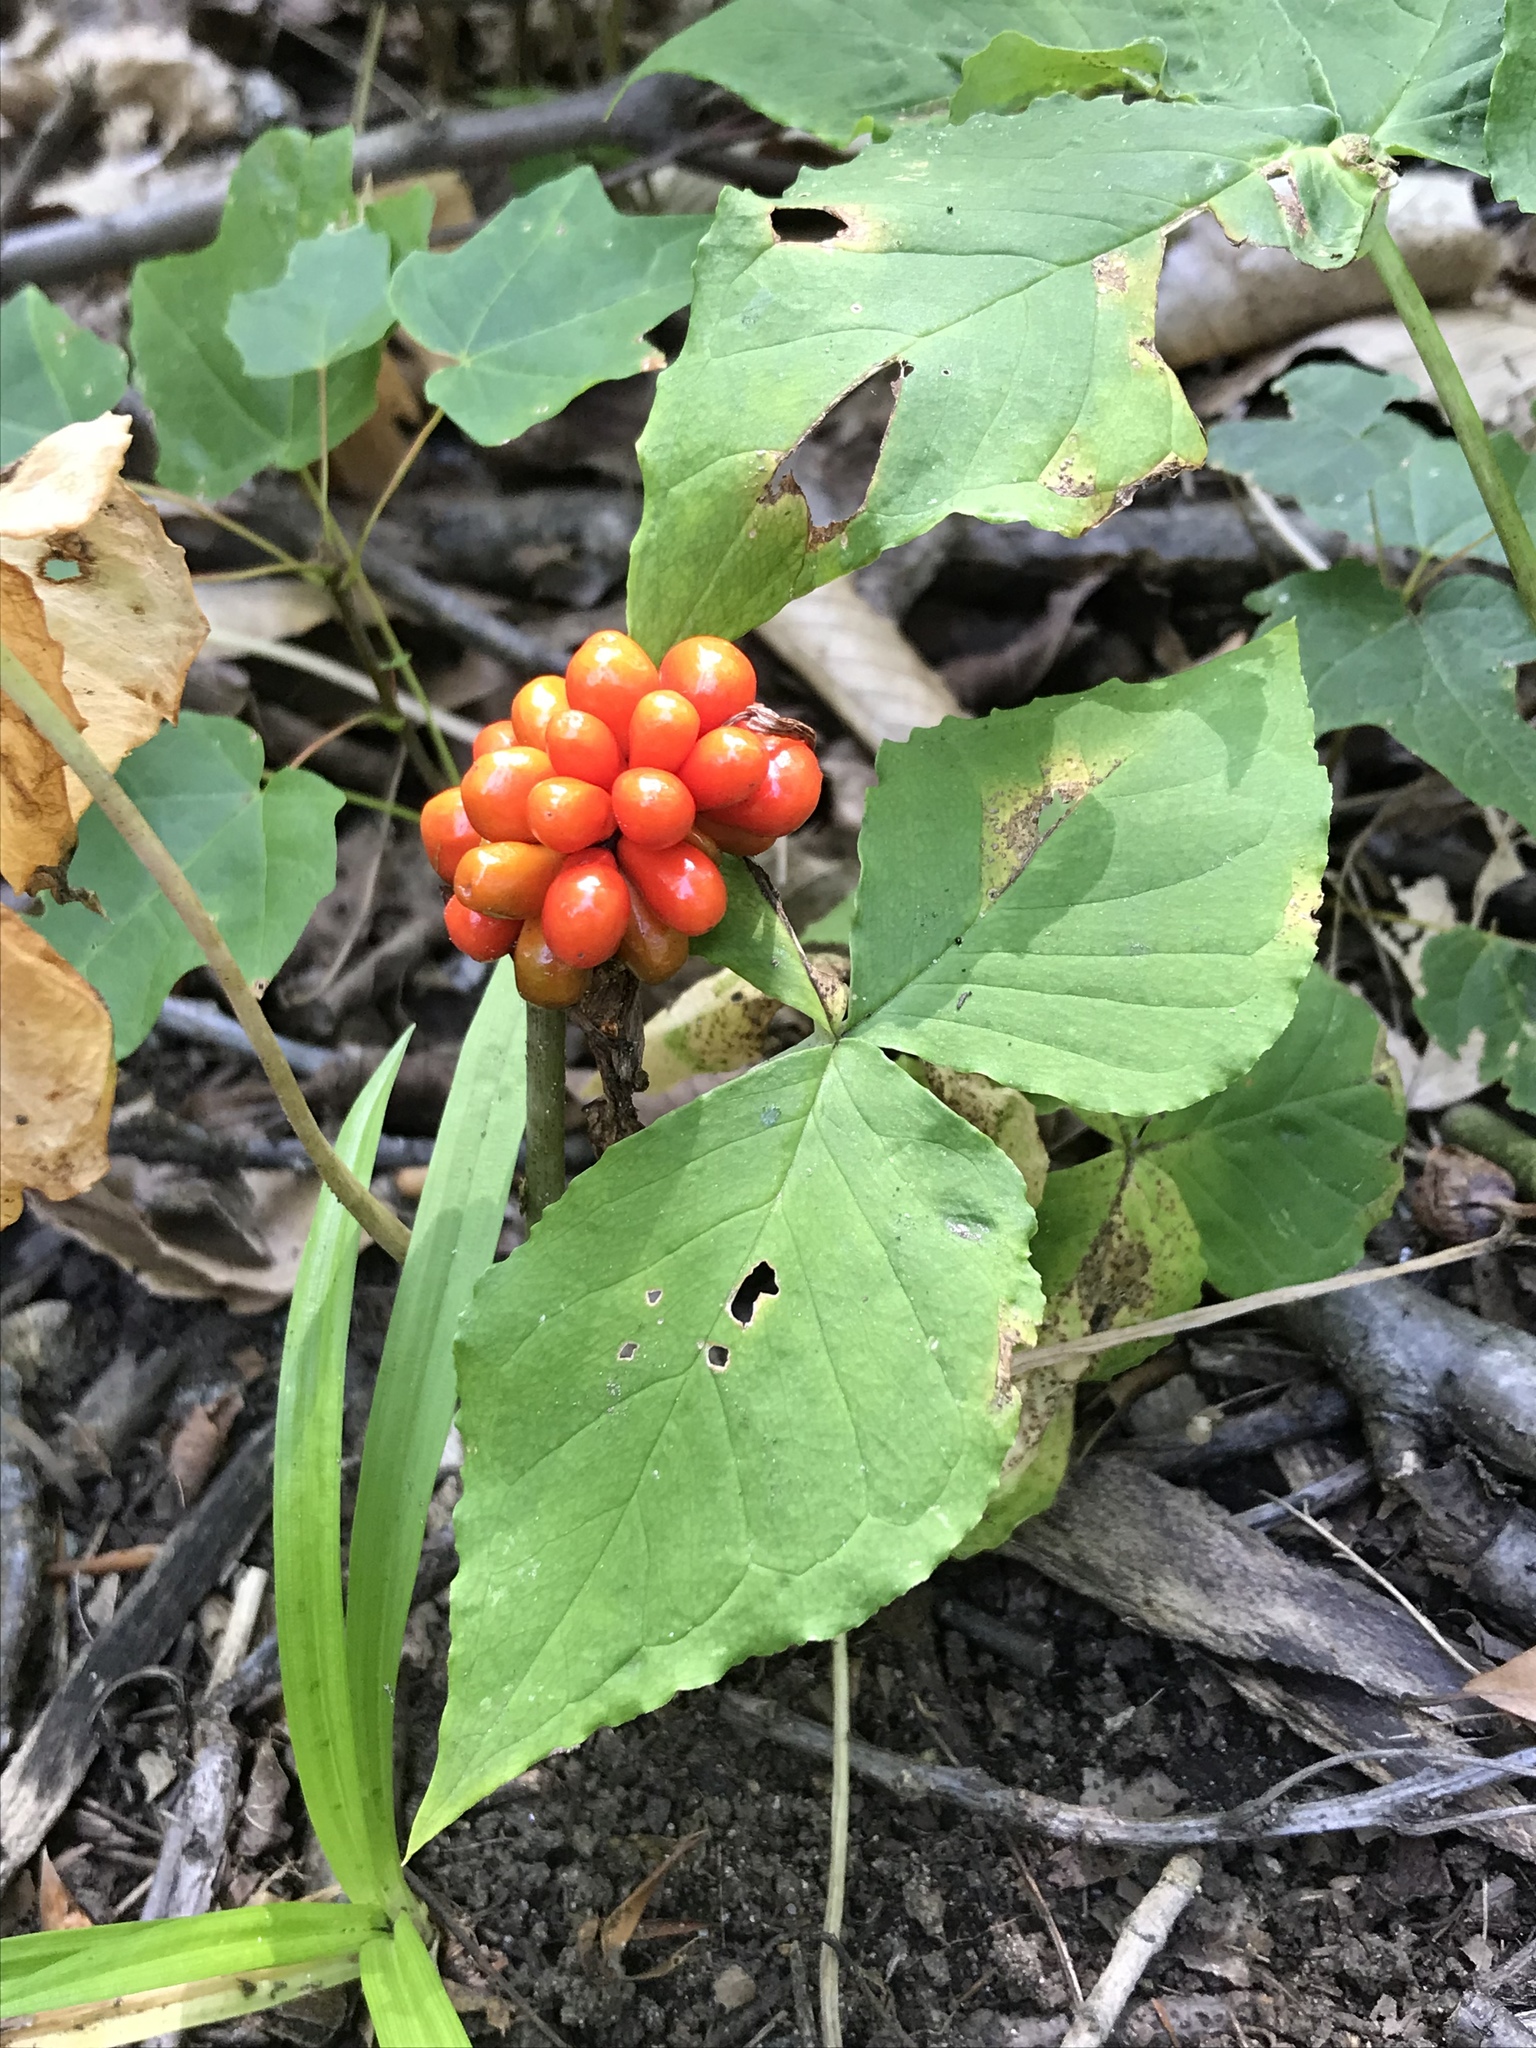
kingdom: Plantae
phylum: Tracheophyta
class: Liliopsida
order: Alismatales
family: Araceae
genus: Arisaema
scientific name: Arisaema triphyllum
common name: Jack-in-the-pulpit
